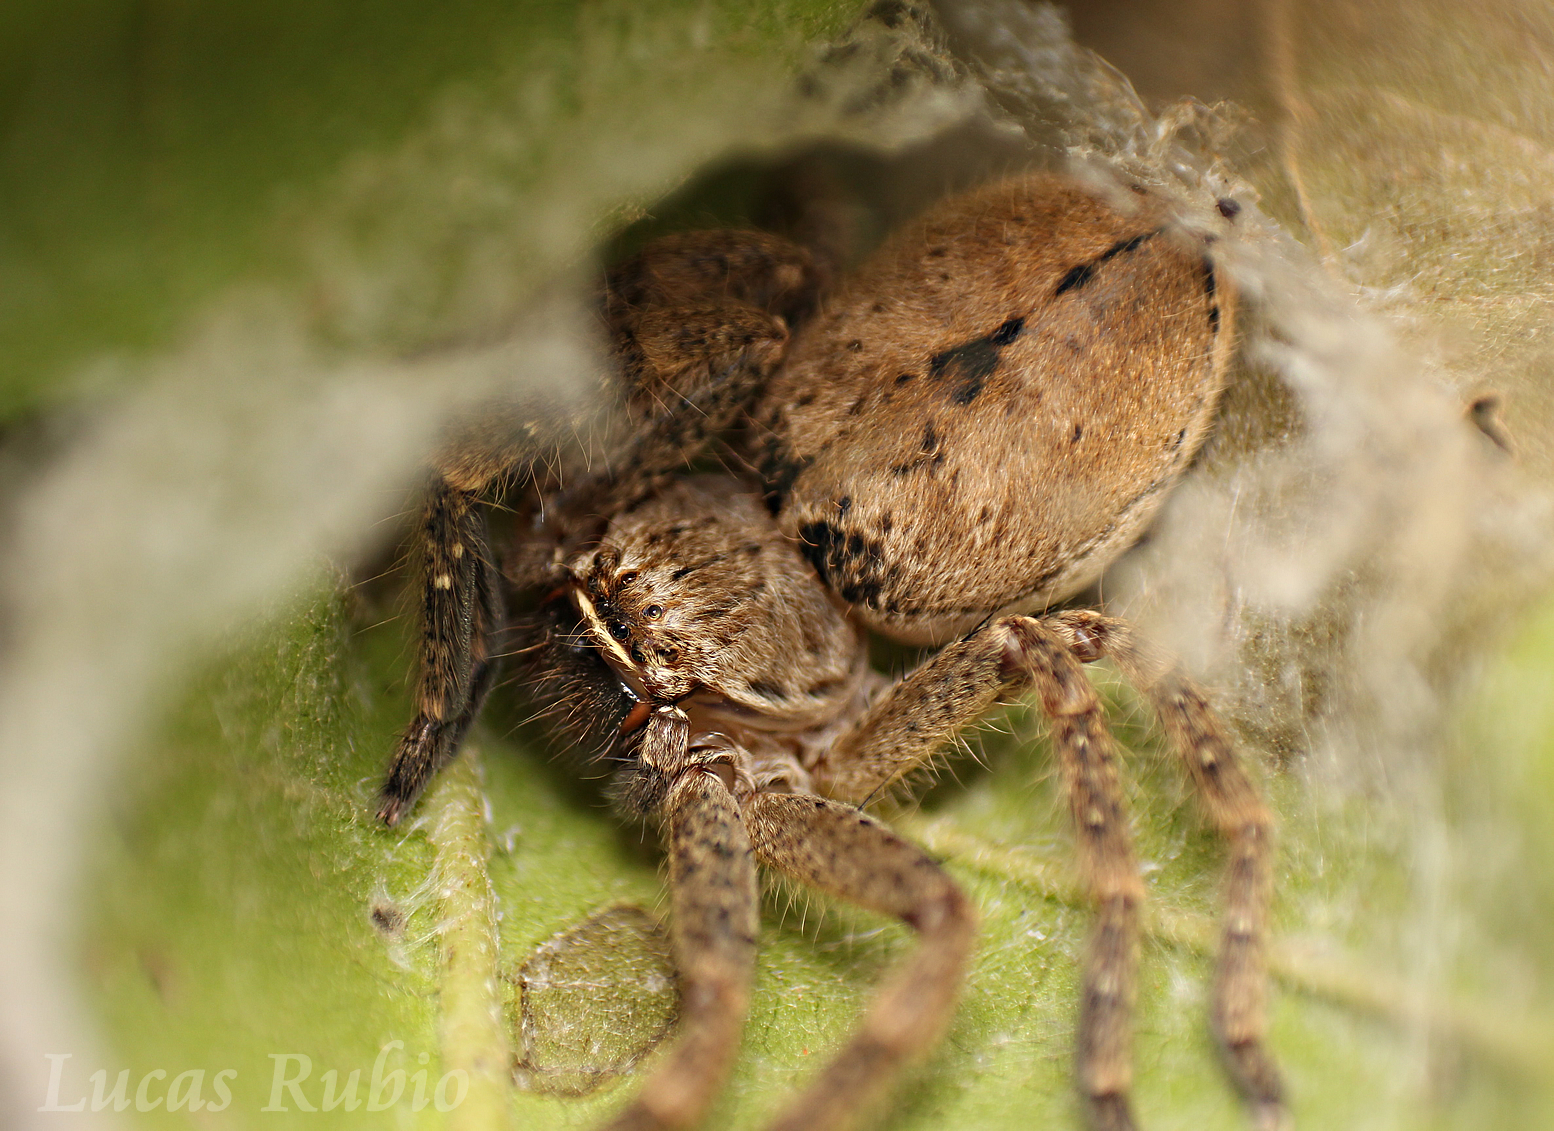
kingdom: Animalia
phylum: Arthropoda
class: Arachnida
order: Araneae
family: Sparassidae
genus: Polybetes
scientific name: Polybetes rapidus
